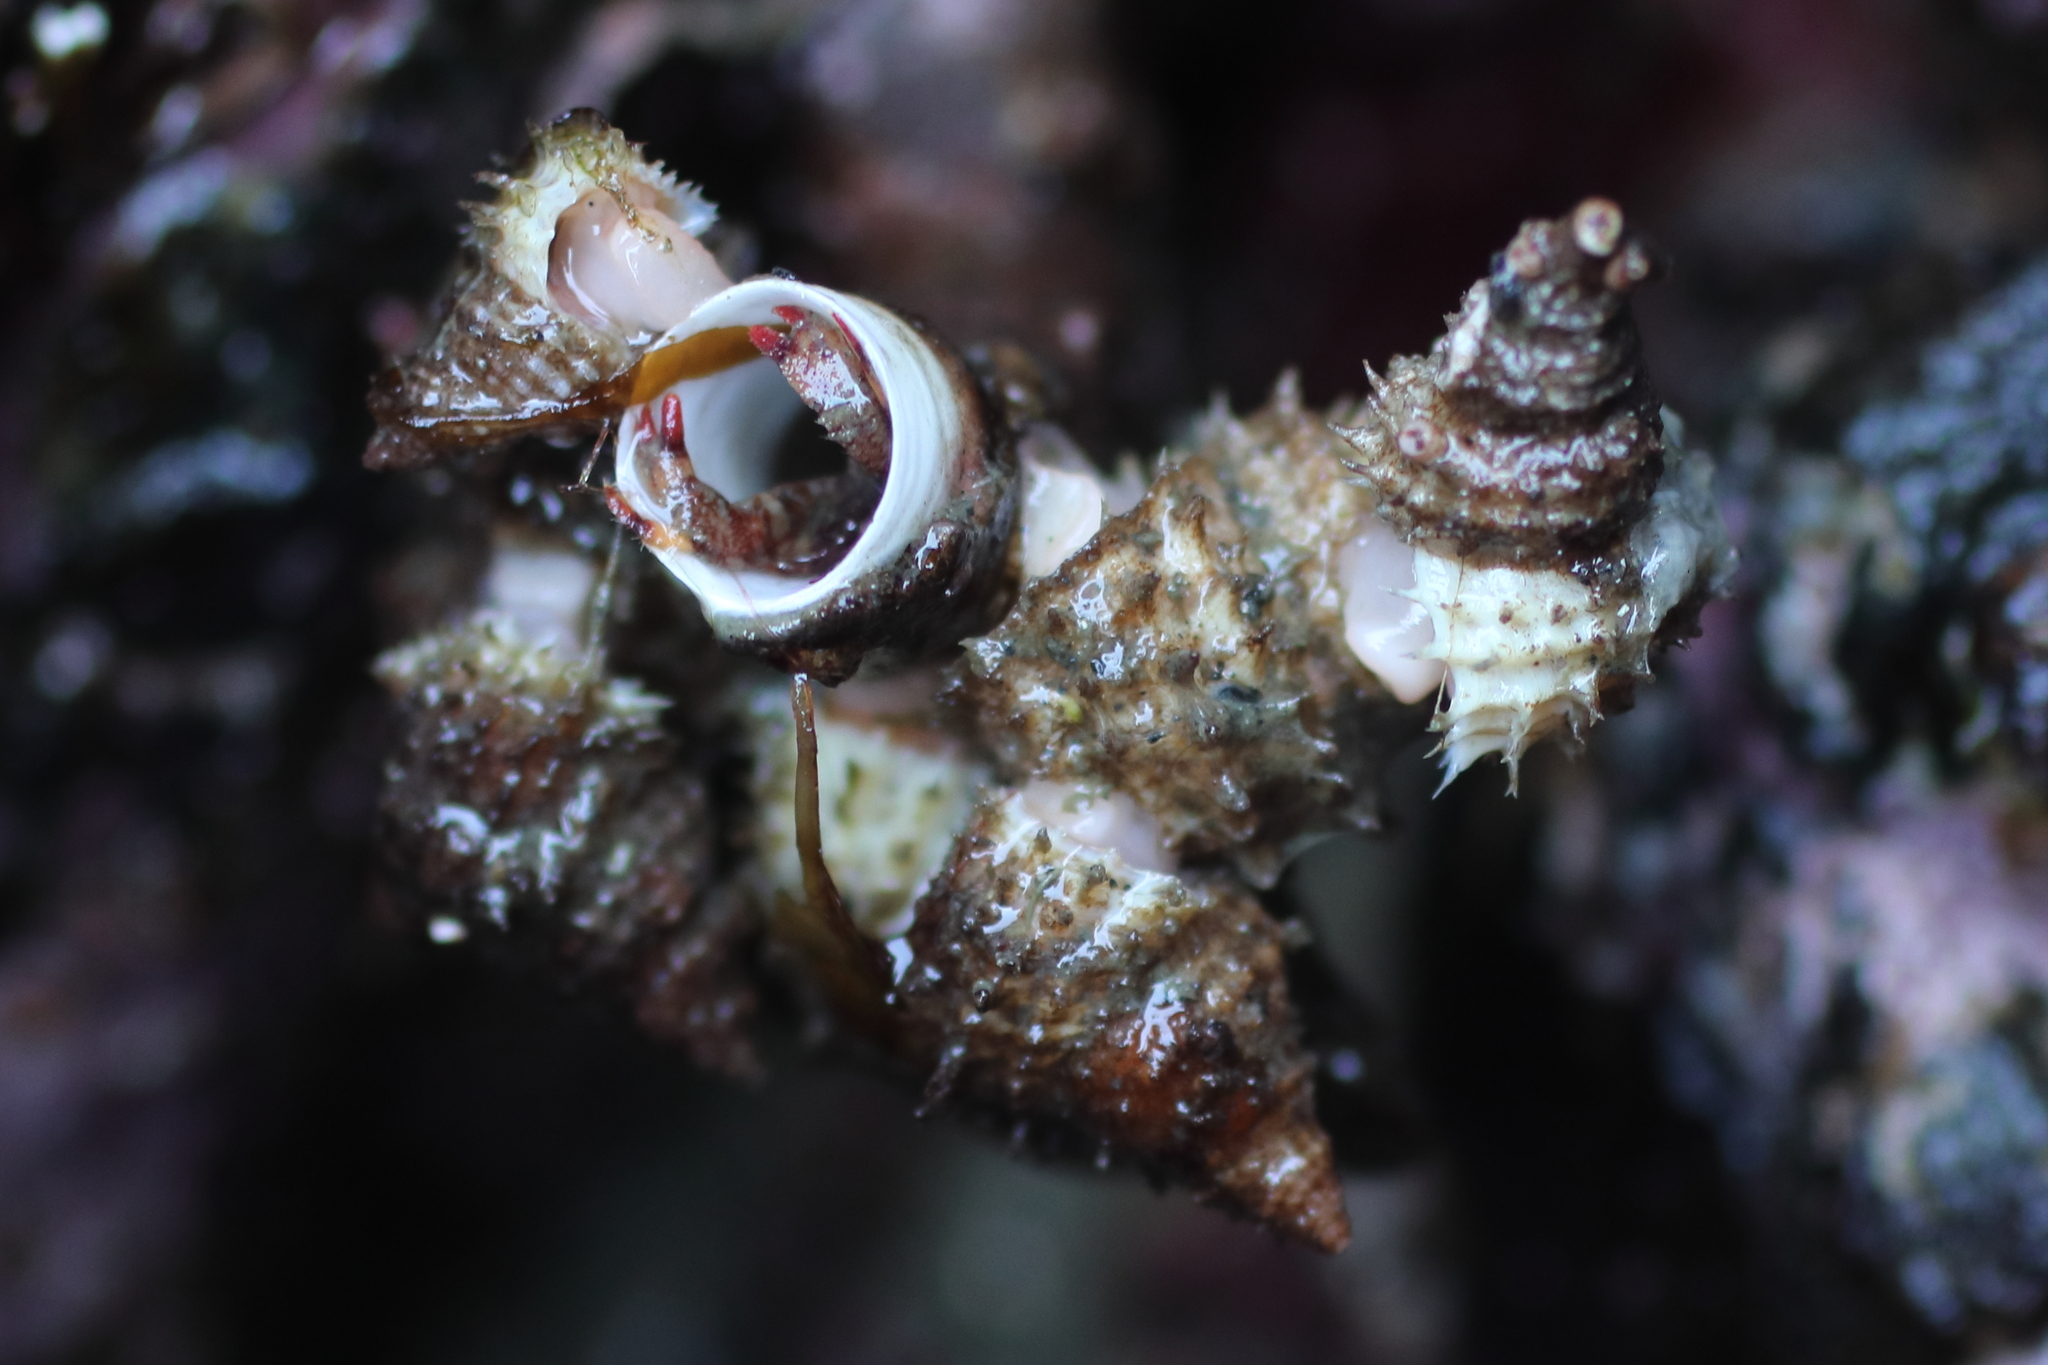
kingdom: Animalia
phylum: Mollusca
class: Gastropoda
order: Littorinimorpha
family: Capulidae
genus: Trichotropis
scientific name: Trichotropis cancellata
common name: Cancellate hairysnail
